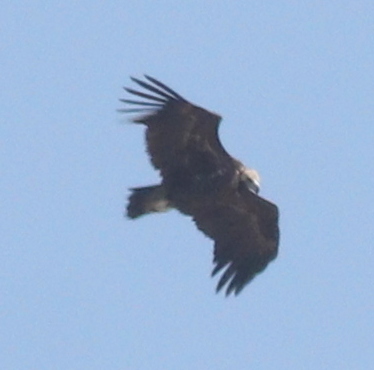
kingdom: Animalia
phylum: Chordata
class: Aves
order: Accipitriformes
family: Accipitridae
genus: Aegypius
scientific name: Aegypius monachus
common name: Cinereous vulture
